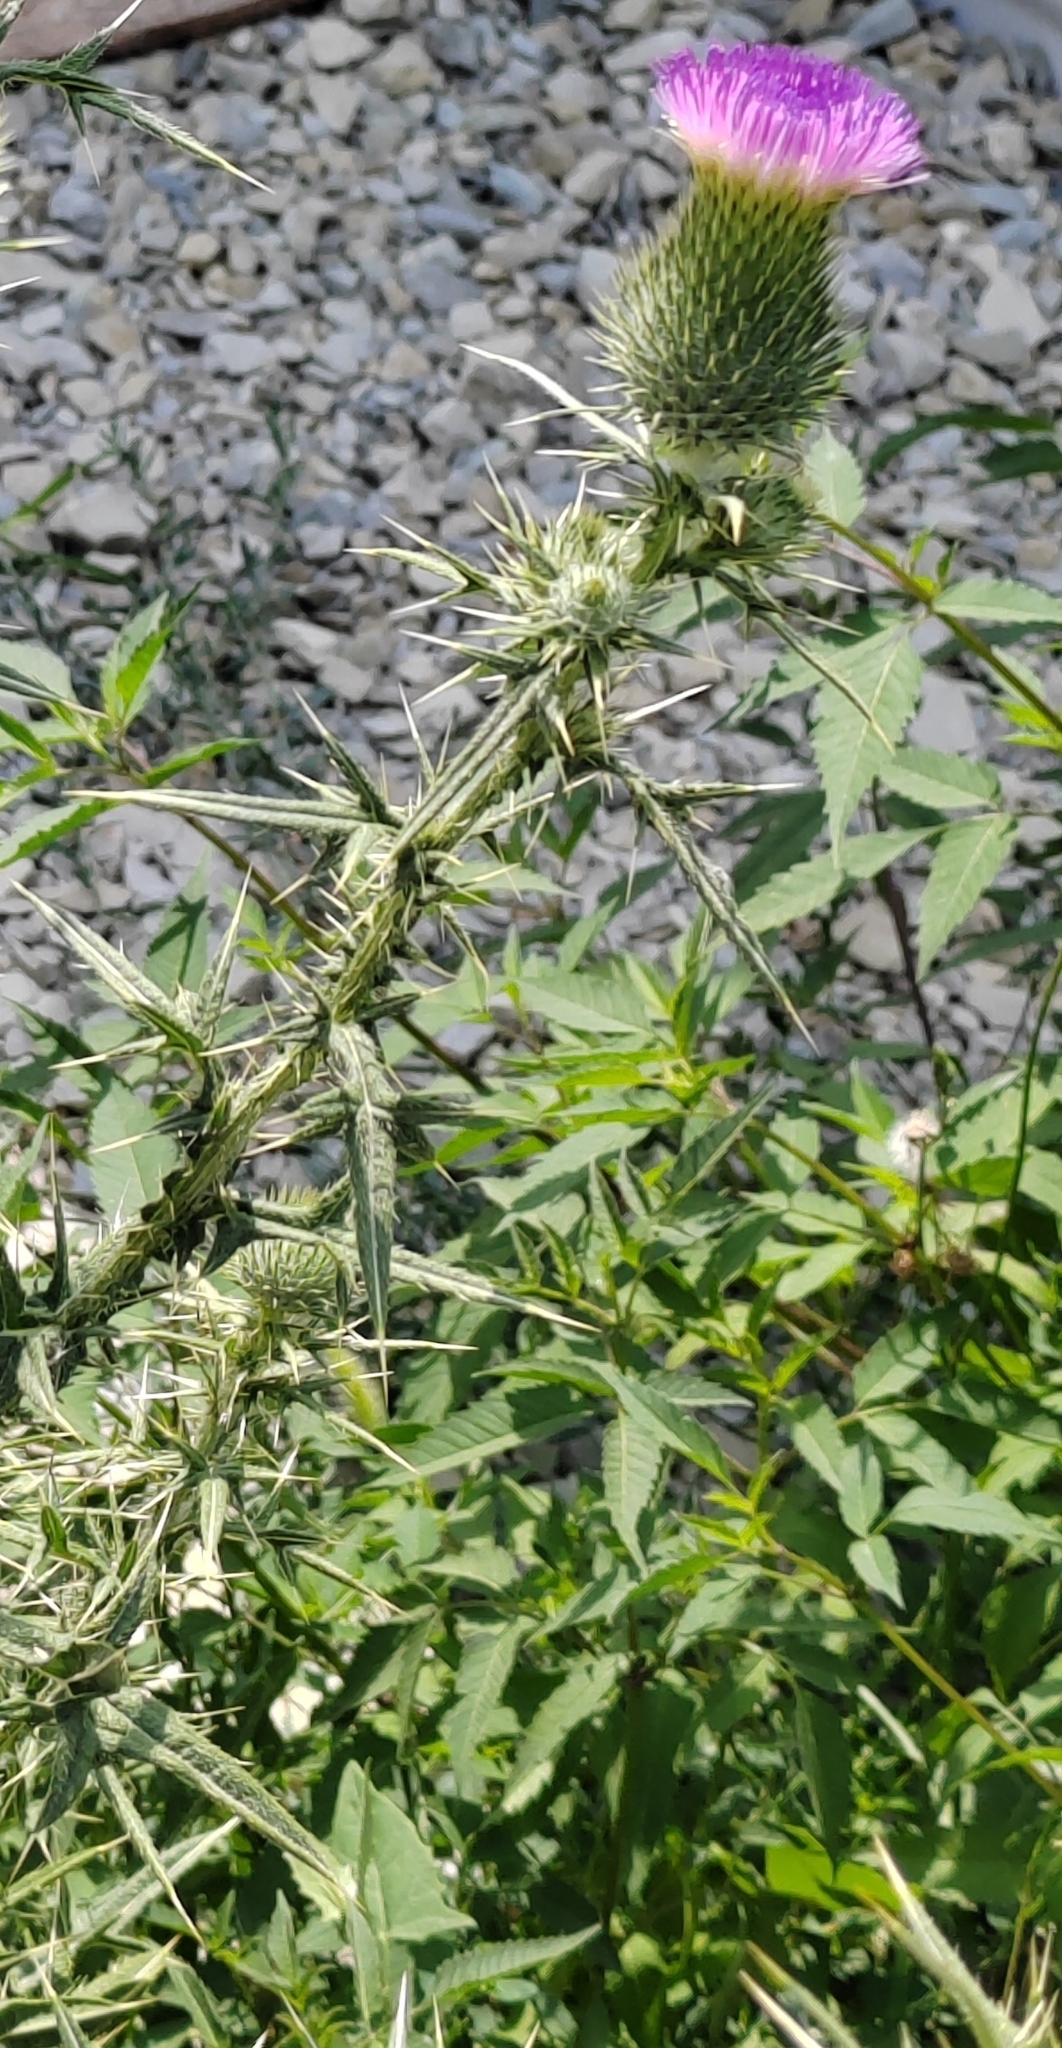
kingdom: Plantae
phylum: Tracheophyta
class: Magnoliopsida
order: Asterales
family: Asteraceae
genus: Cirsium
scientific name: Cirsium vulgare
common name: Bull thistle
